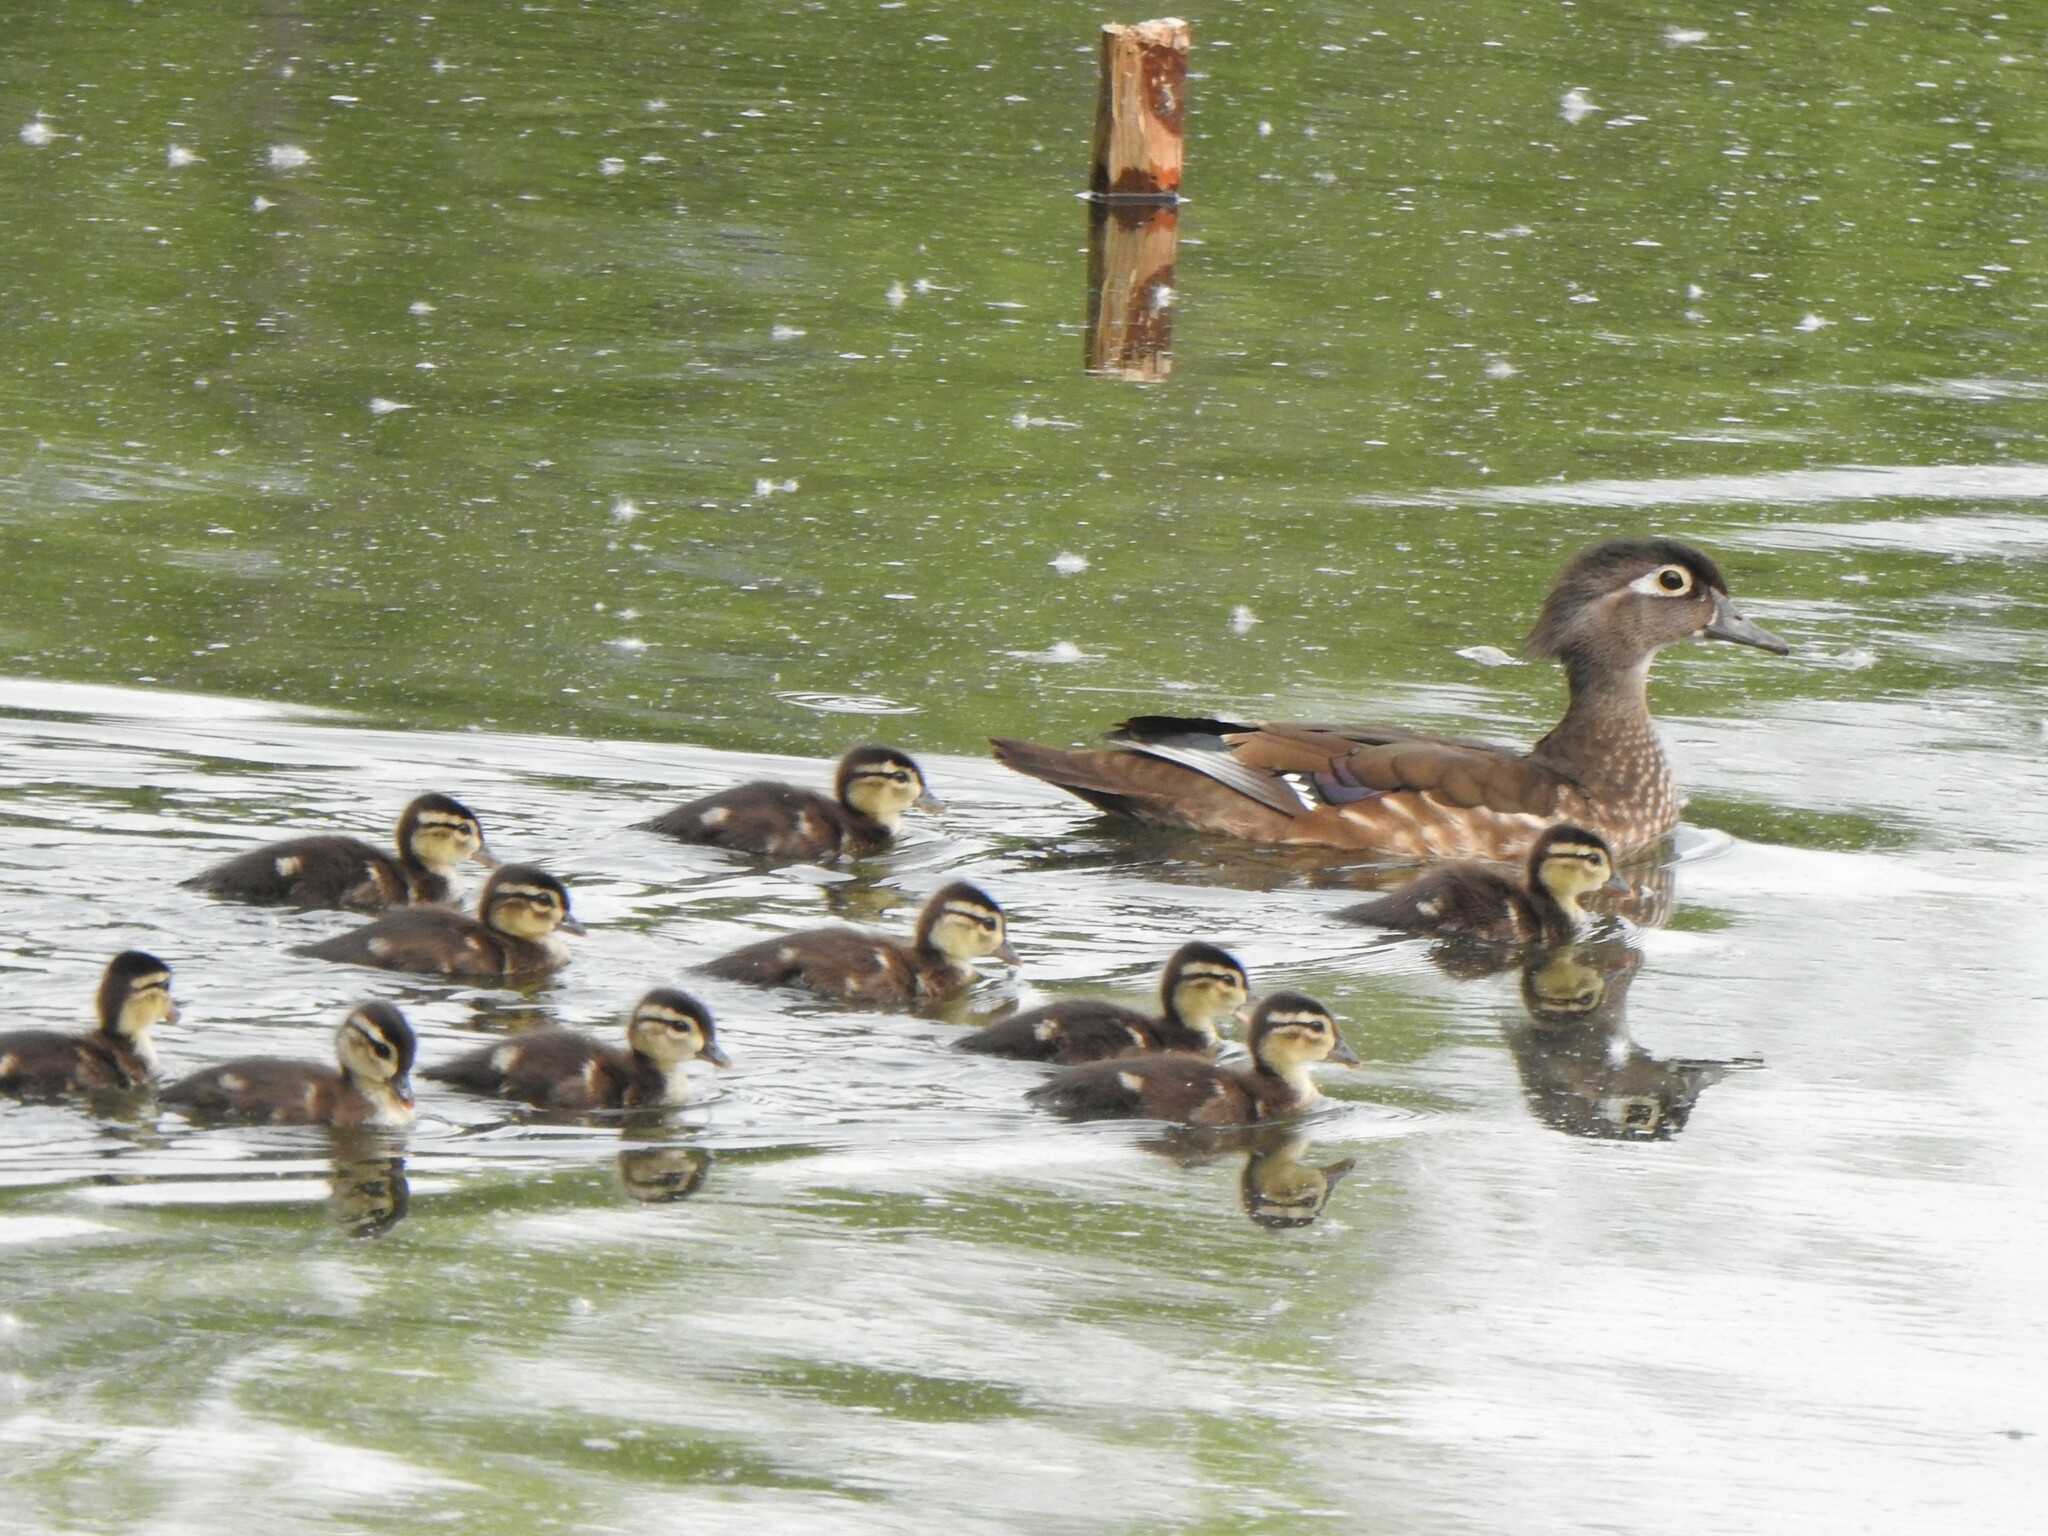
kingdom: Animalia
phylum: Chordata
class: Aves
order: Anseriformes
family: Anatidae
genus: Aix
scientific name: Aix sponsa
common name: Wood duck
